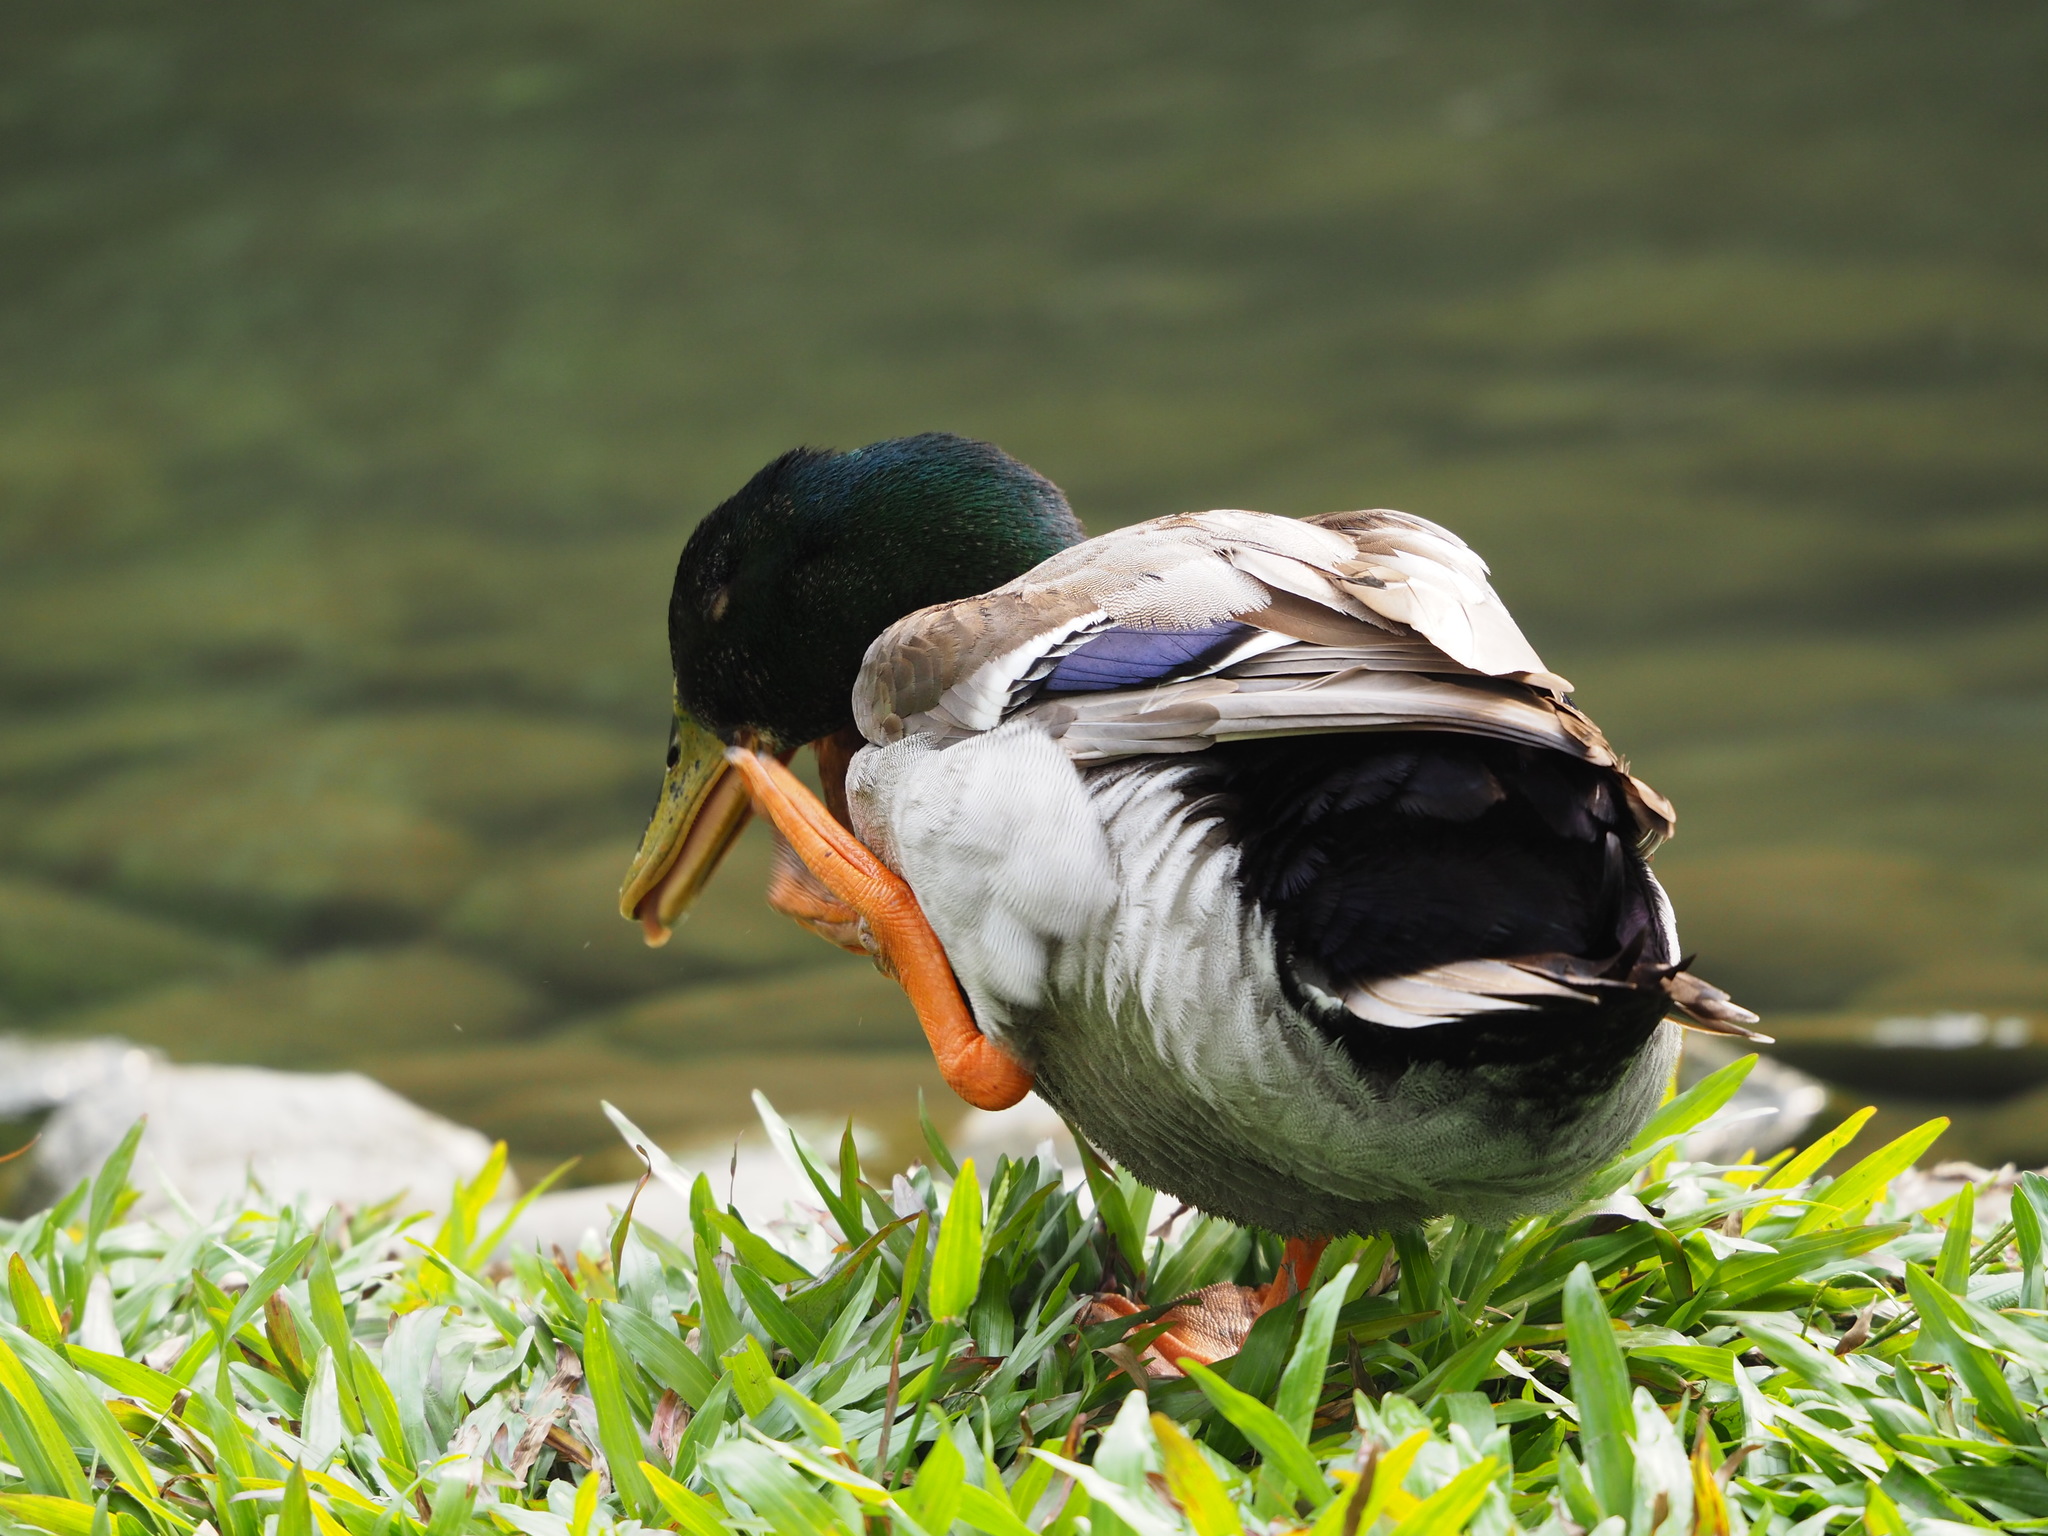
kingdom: Animalia
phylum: Chordata
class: Aves
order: Anseriformes
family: Anatidae
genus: Anas
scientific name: Anas platyrhynchos
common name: Mallard
